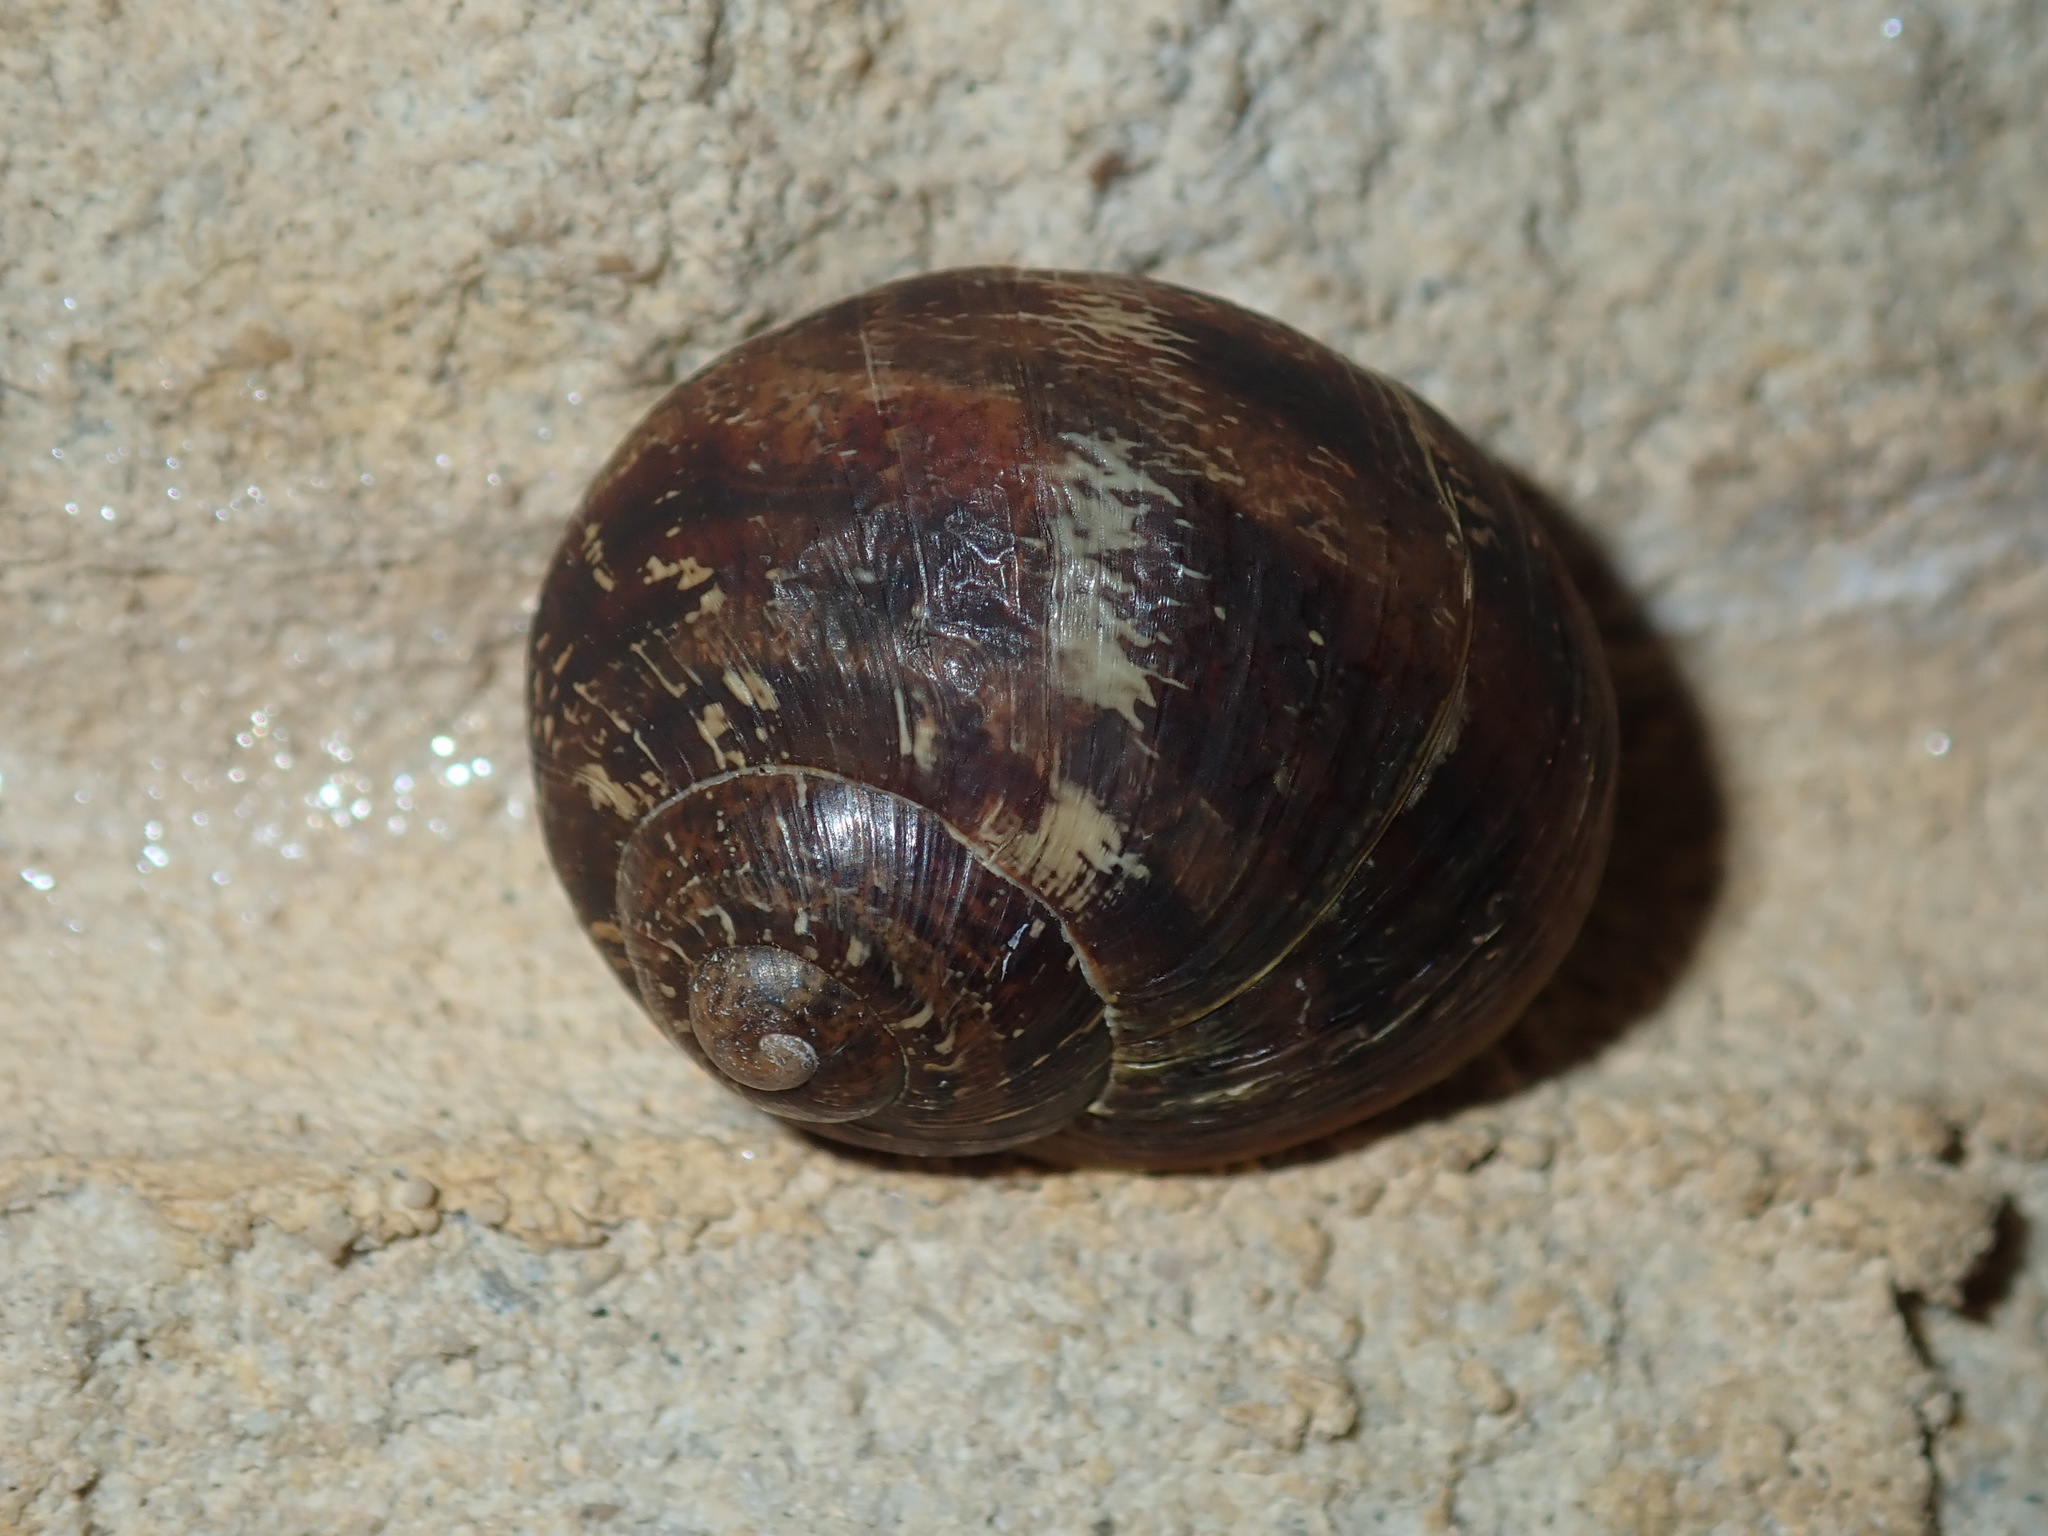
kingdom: Animalia
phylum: Mollusca
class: Gastropoda
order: Stylommatophora
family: Helicidae
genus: Cornu
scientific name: Cornu aspersum
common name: Brown garden snail
